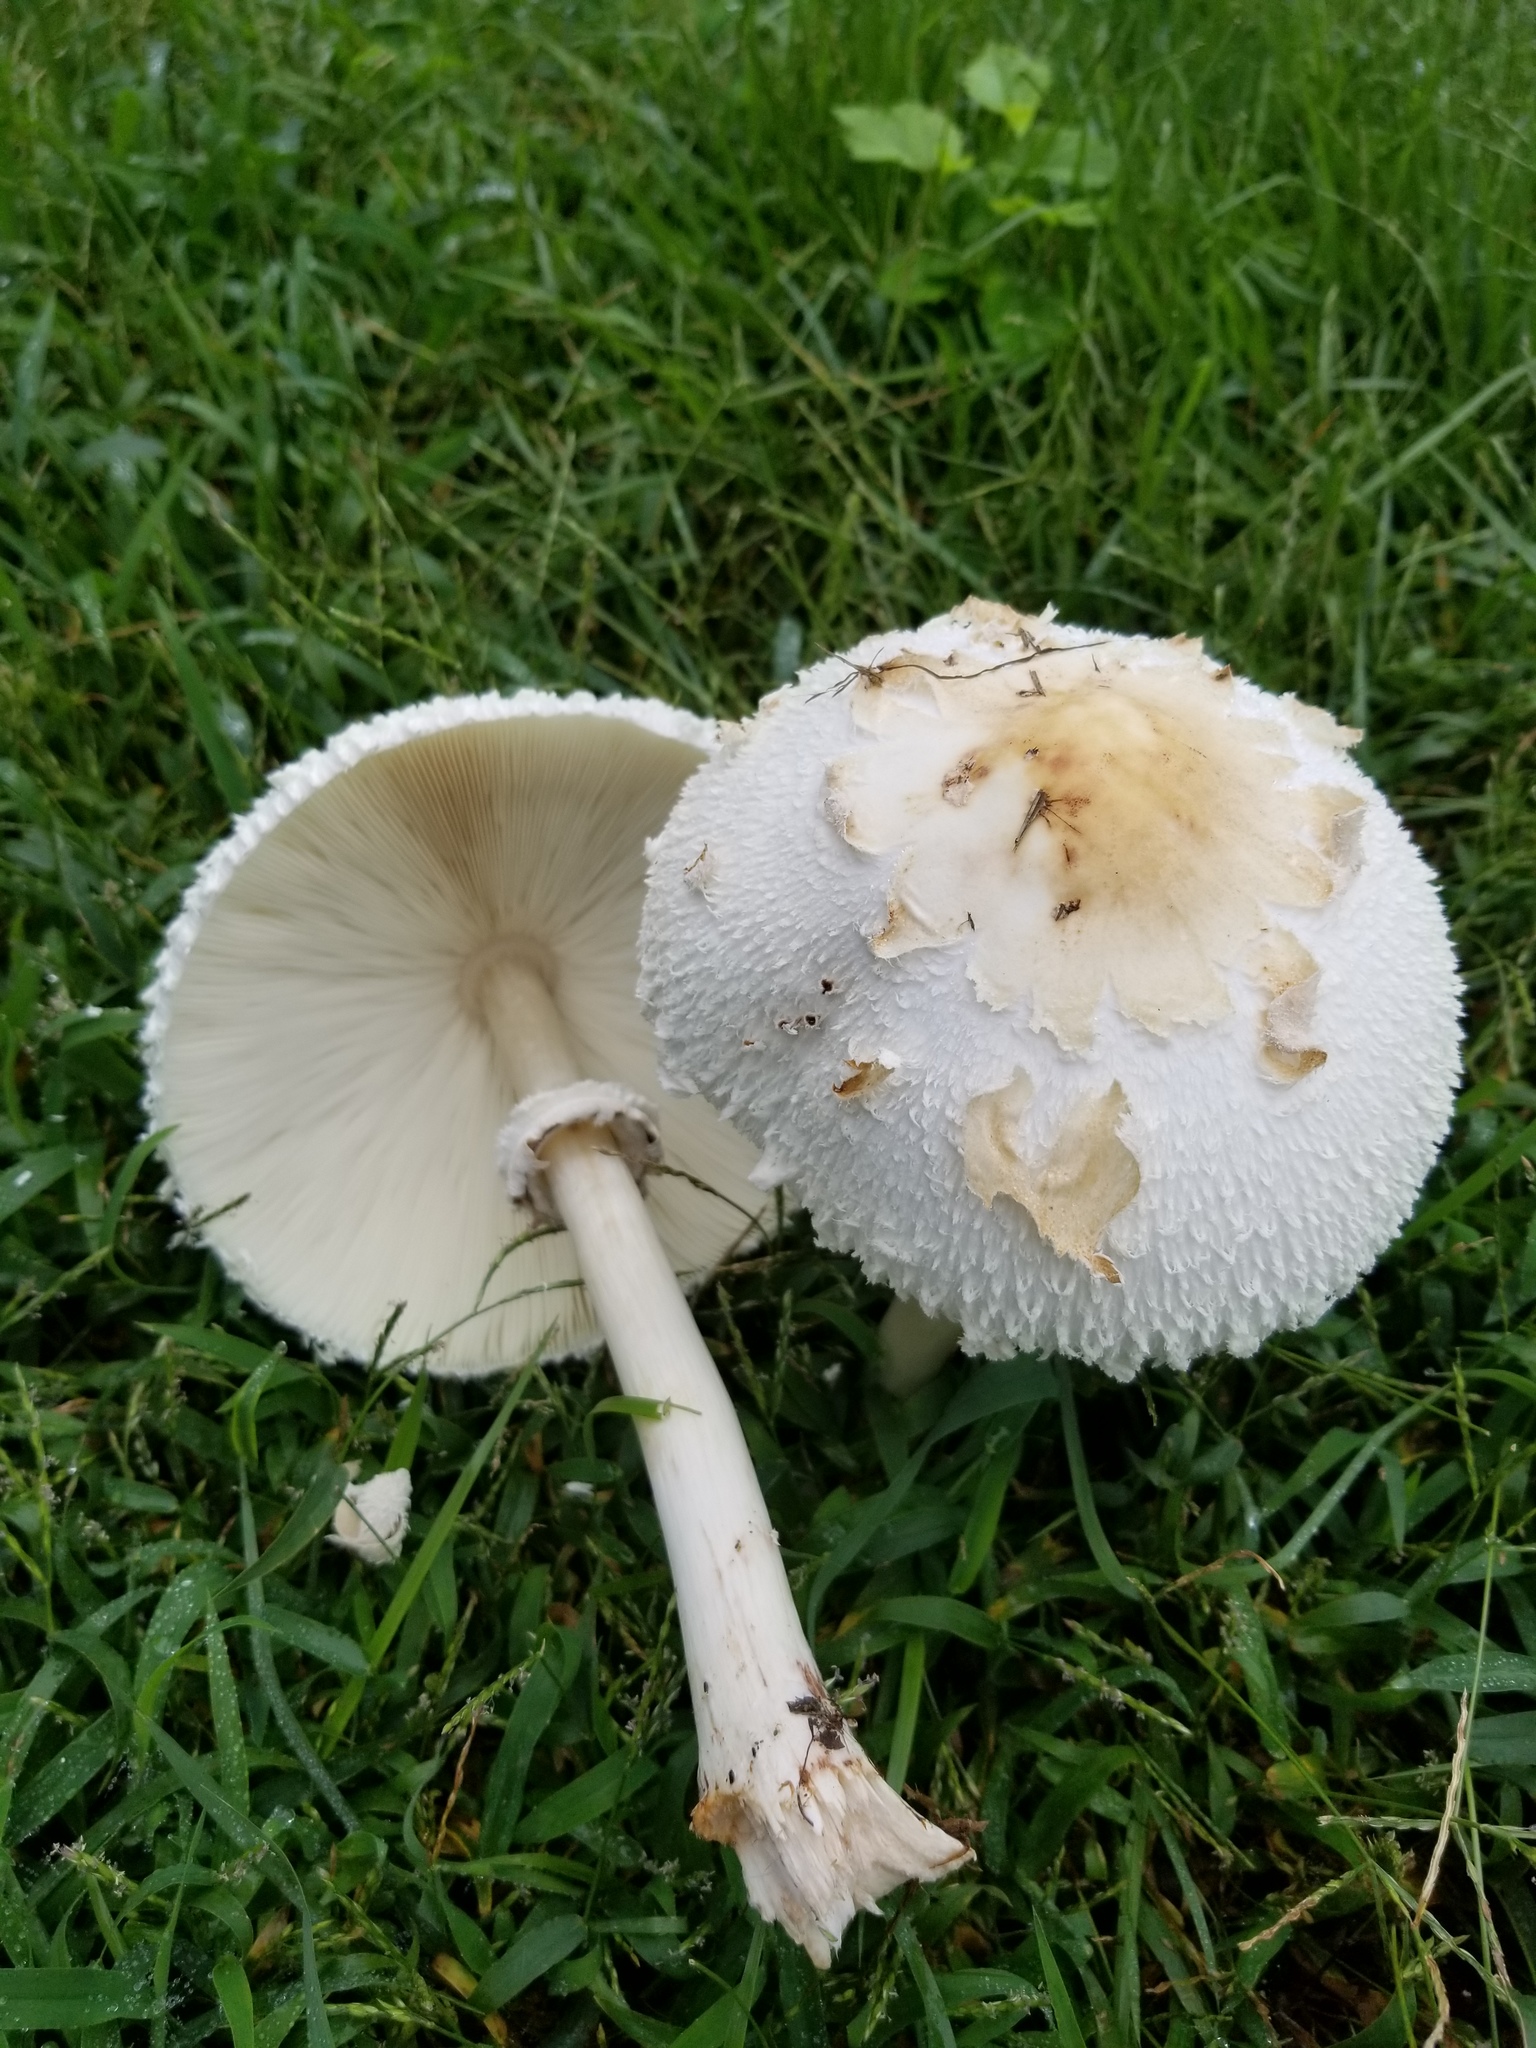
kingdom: Fungi
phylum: Basidiomycota
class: Agaricomycetes
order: Agaricales
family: Agaricaceae
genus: Chlorophyllum
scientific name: Chlorophyllum molybdites
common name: False parasol
